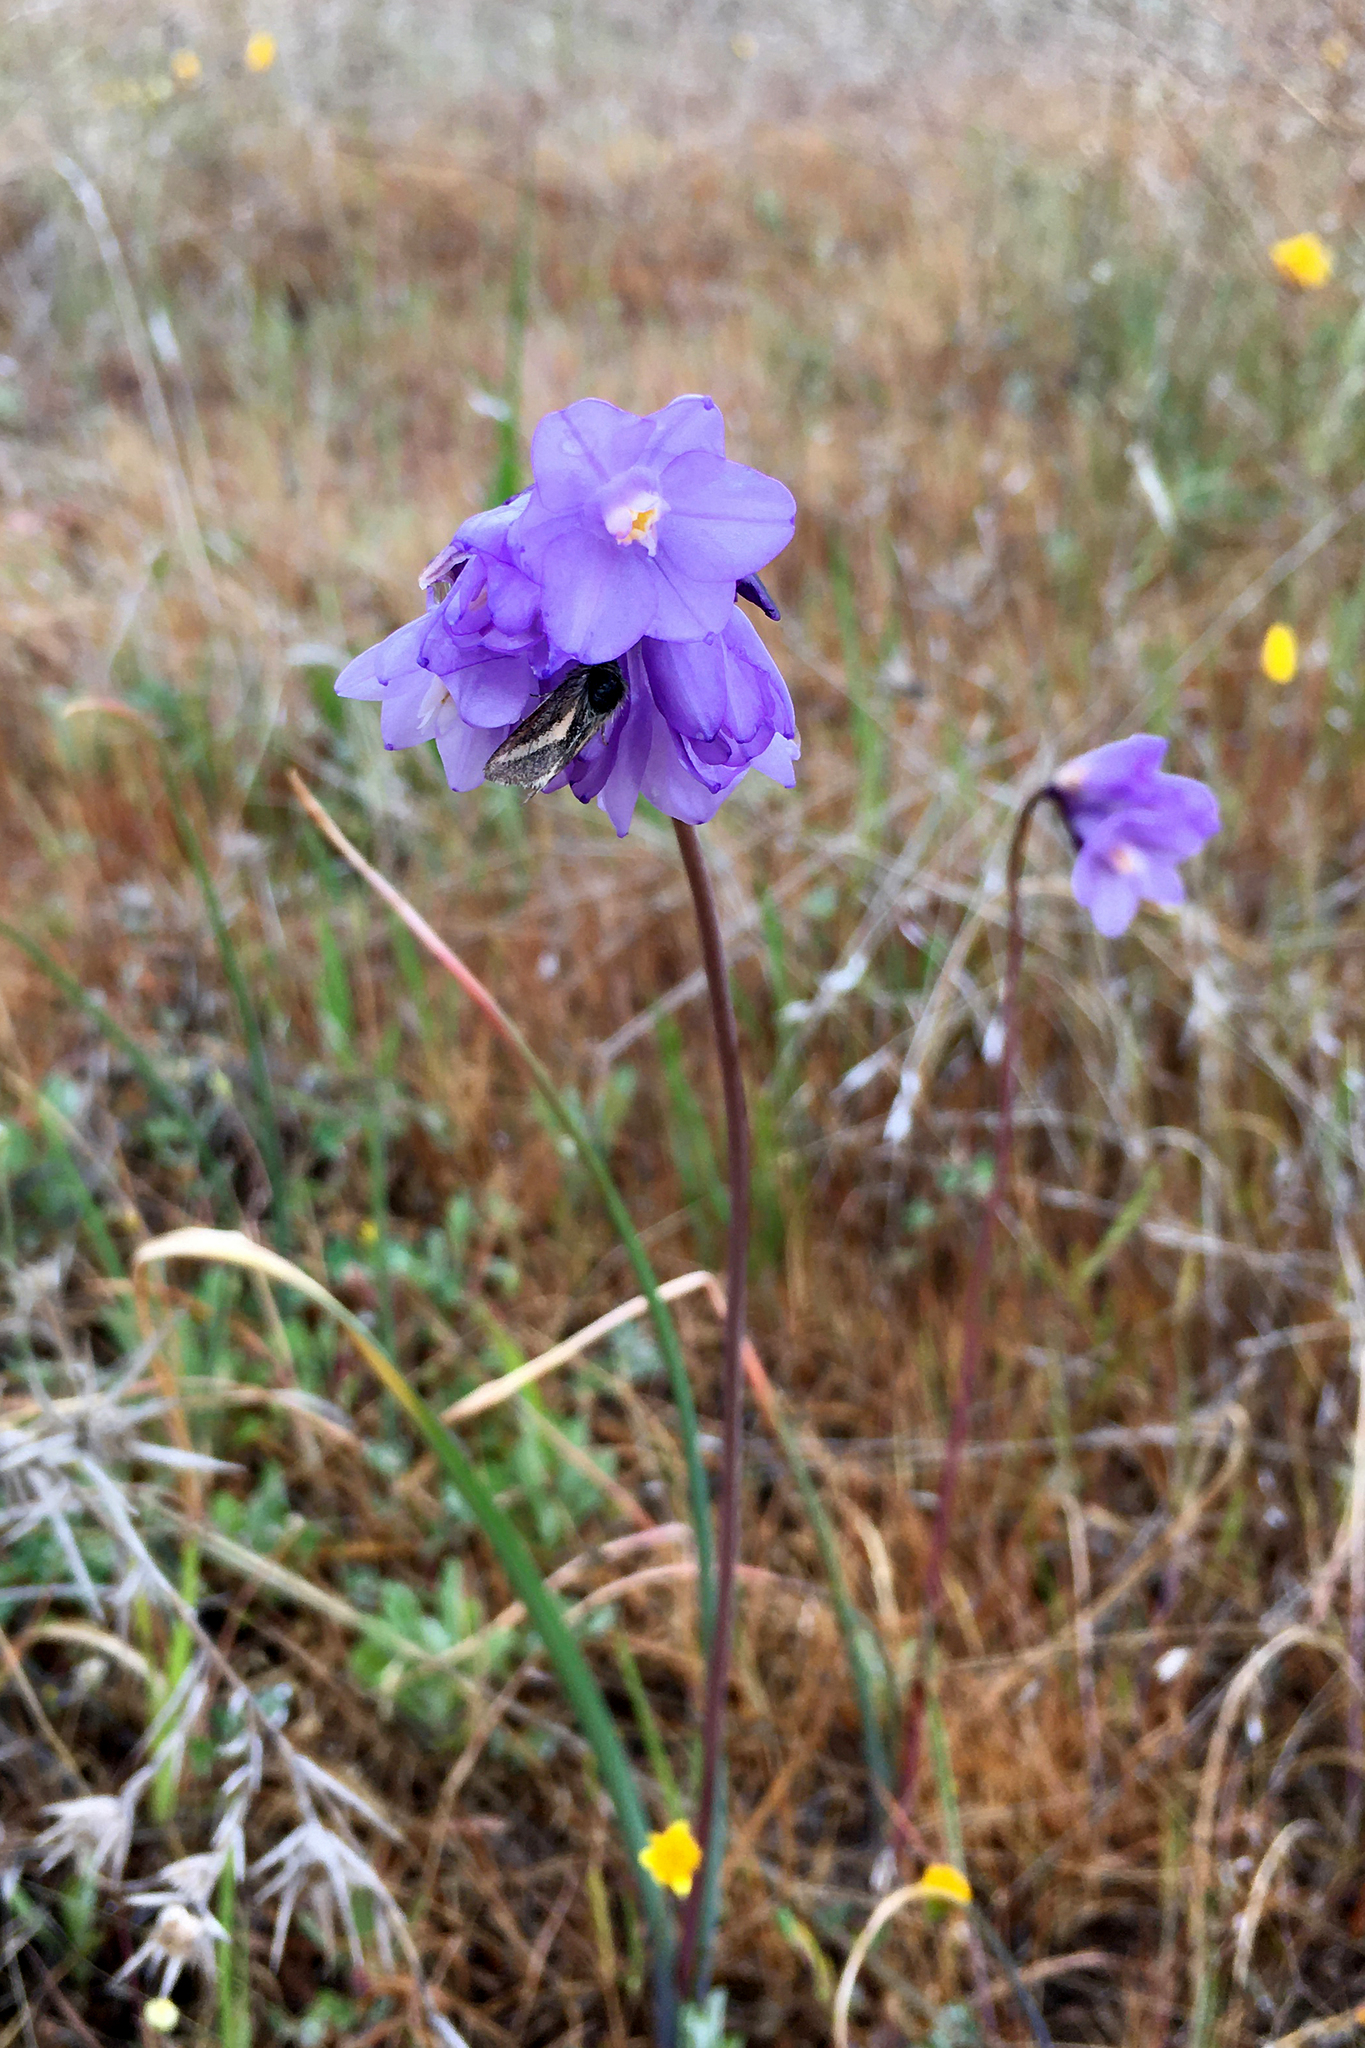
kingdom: Plantae
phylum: Tracheophyta
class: Liliopsida
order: Asparagales
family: Asparagaceae
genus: Dipterostemon
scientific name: Dipterostemon capitatus
